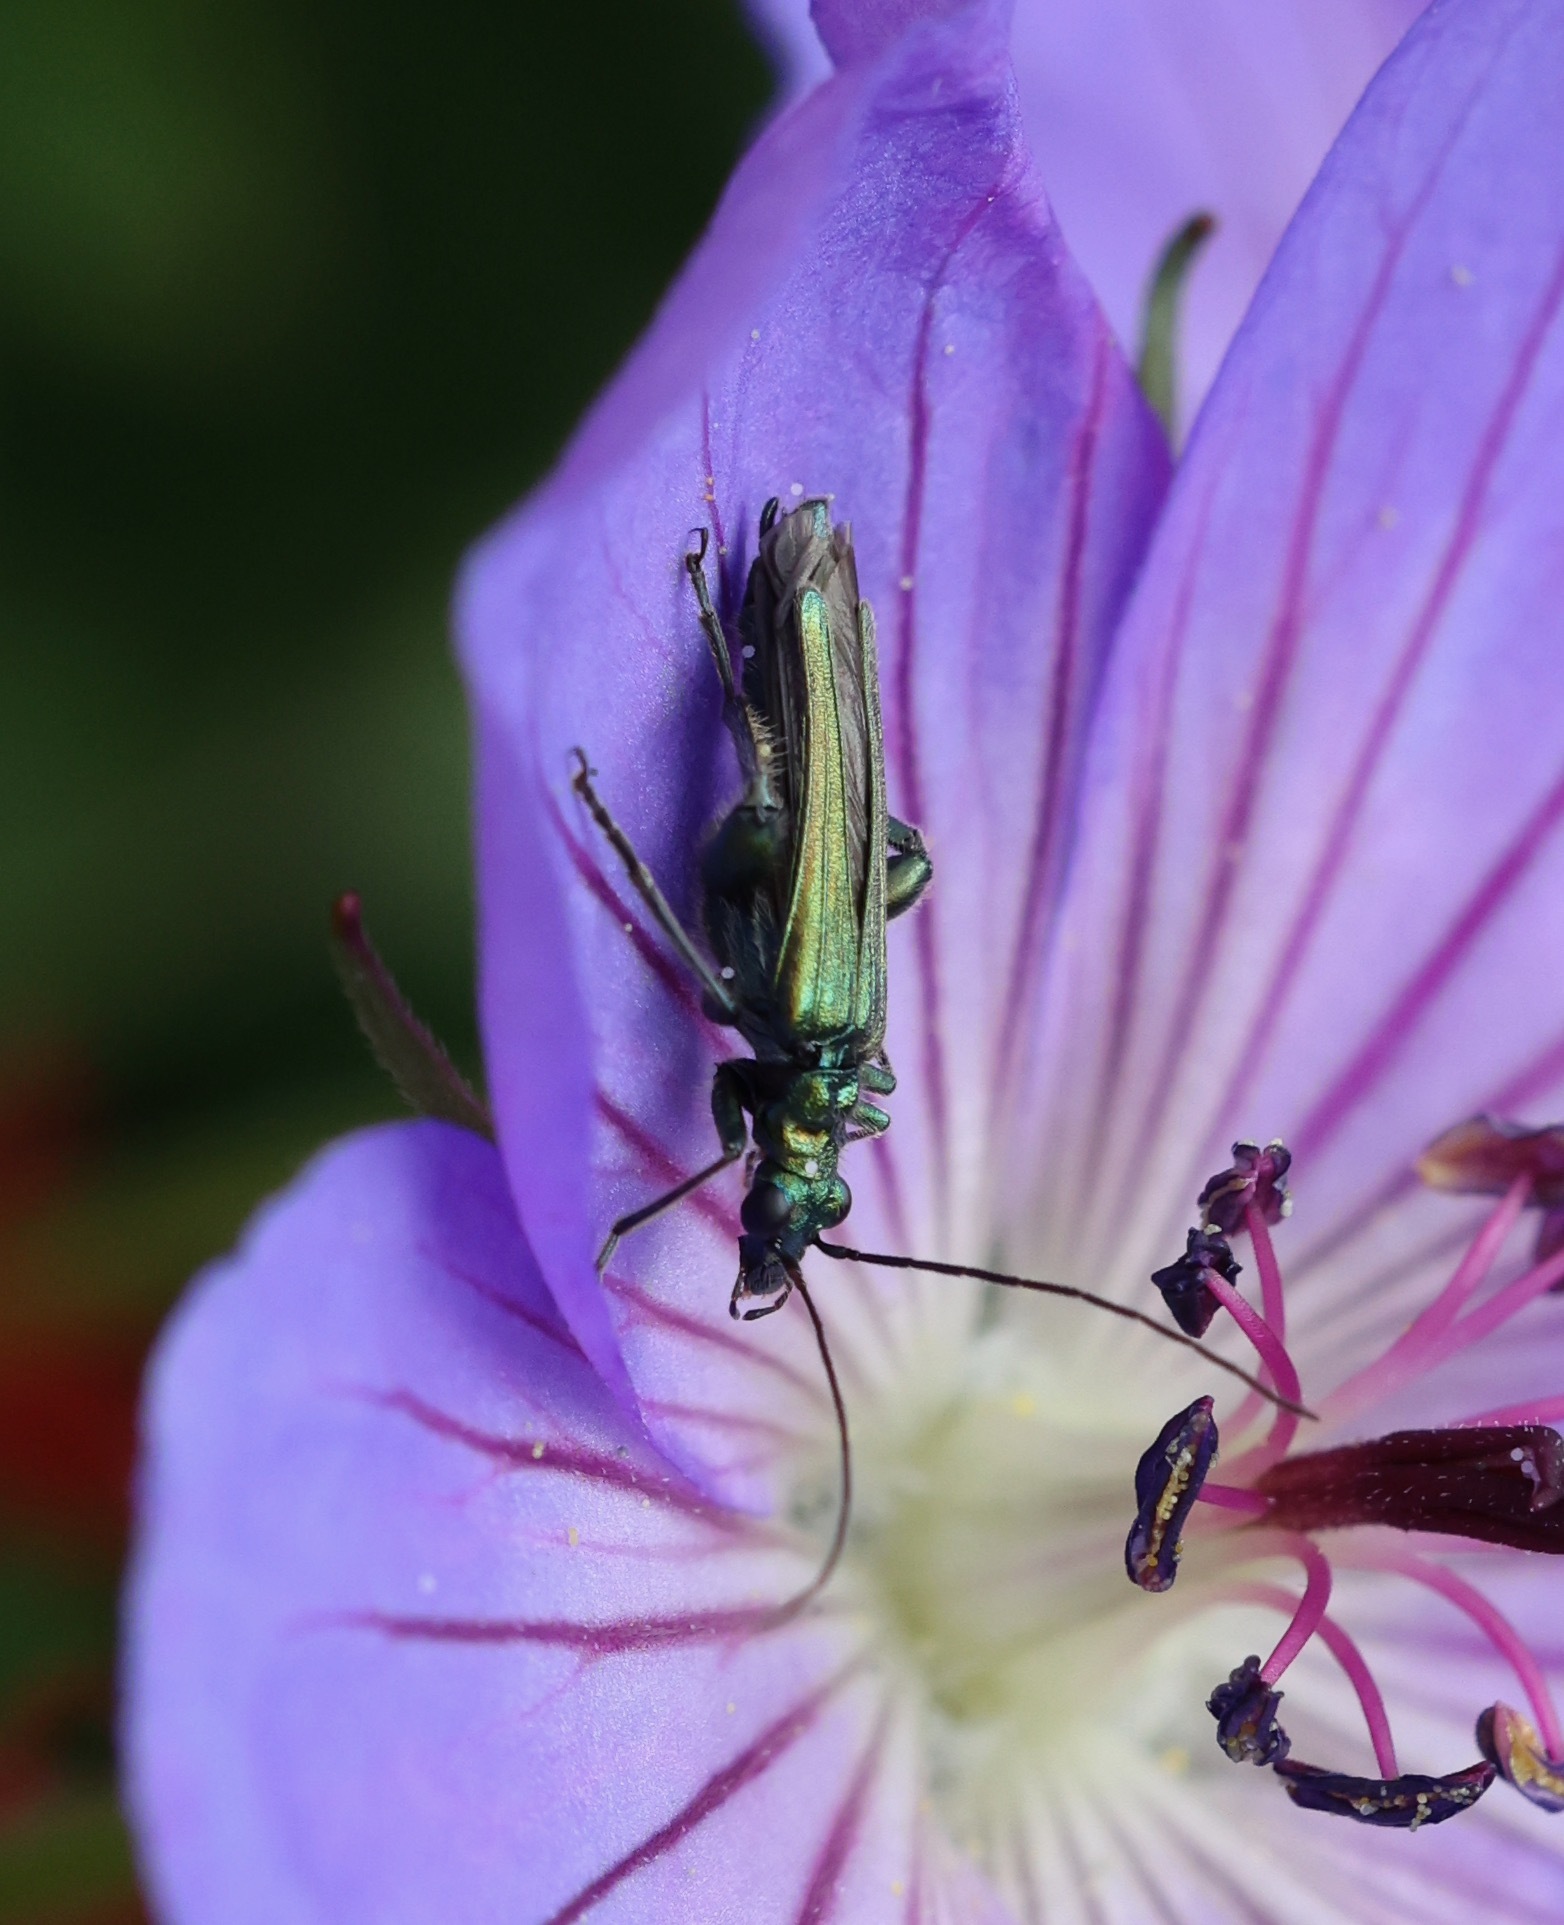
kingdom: Animalia
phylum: Arthropoda
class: Insecta
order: Coleoptera
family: Oedemeridae
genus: Oedemera
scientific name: Oedemera nobilis
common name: Swollen-thighed beetle
